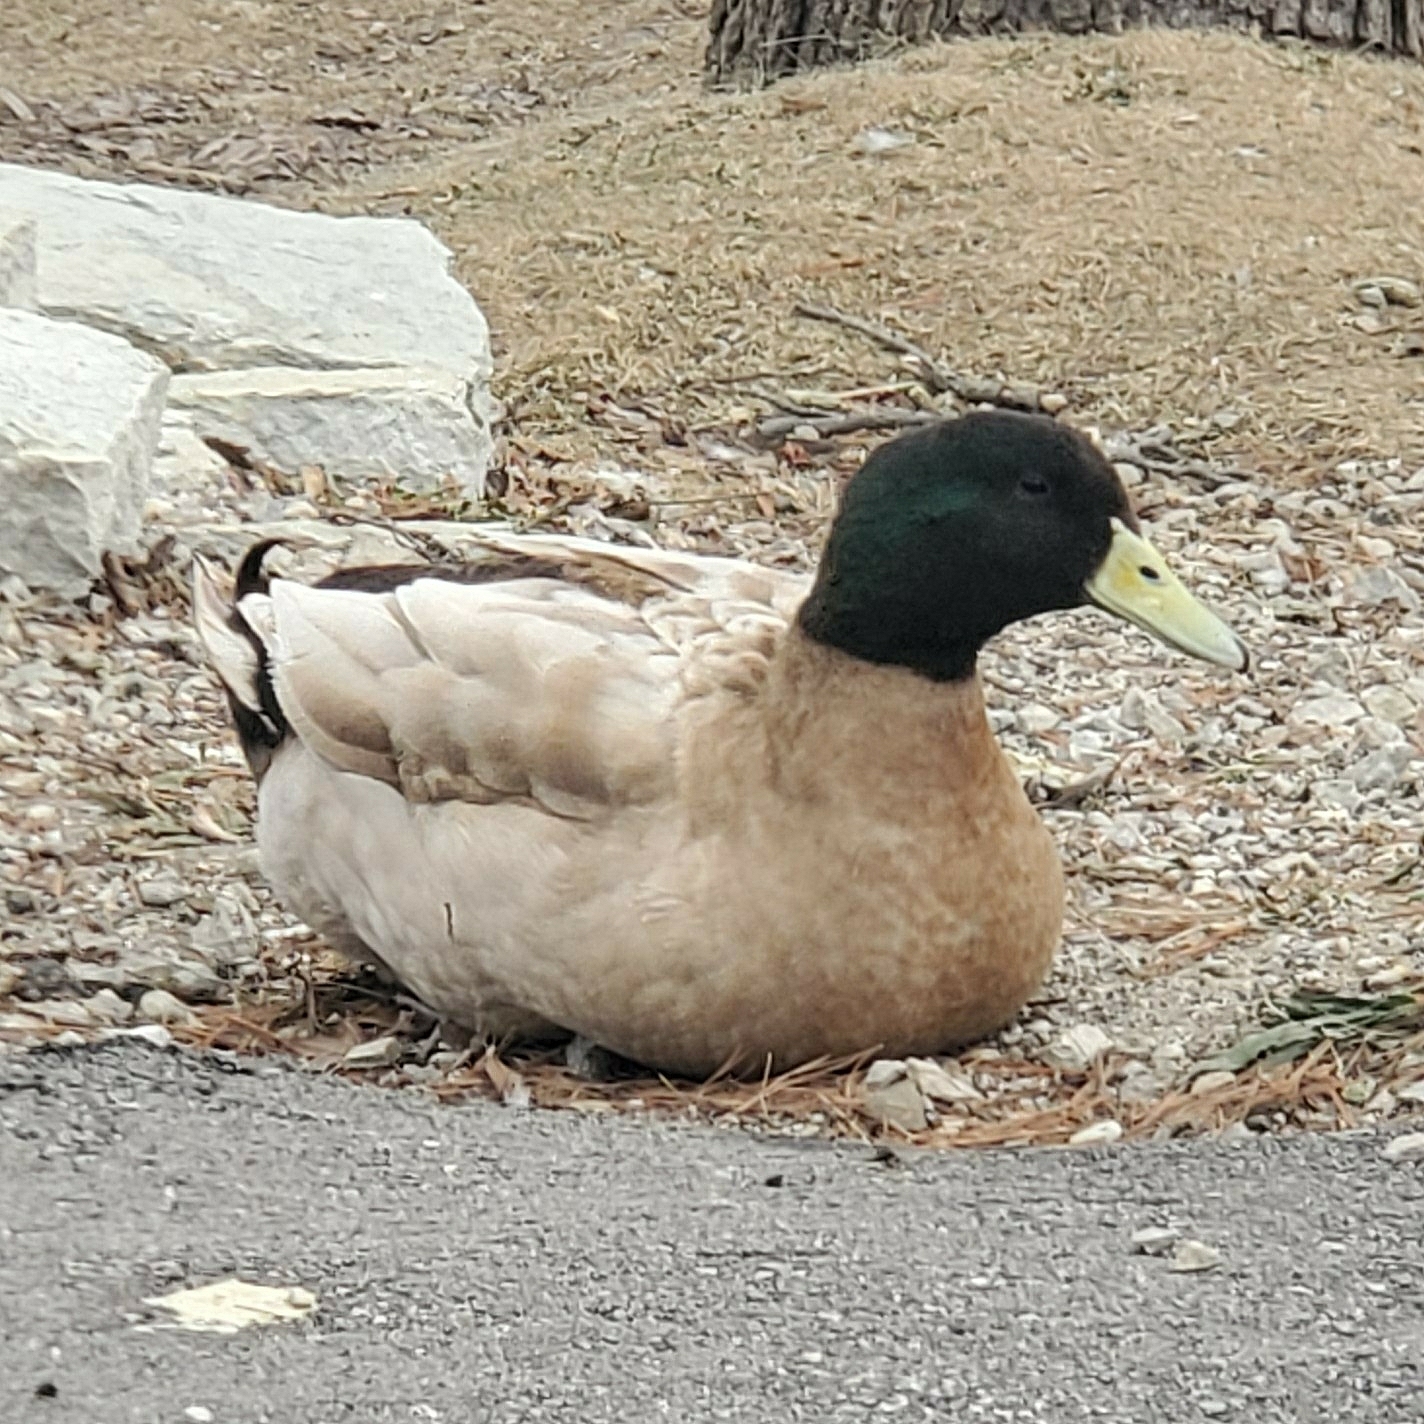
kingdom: Animalia
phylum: Chordata
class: Aves
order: Anseriformes
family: Anatidae
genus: Anas
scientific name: Anas platyrhynchos
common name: Mallard
